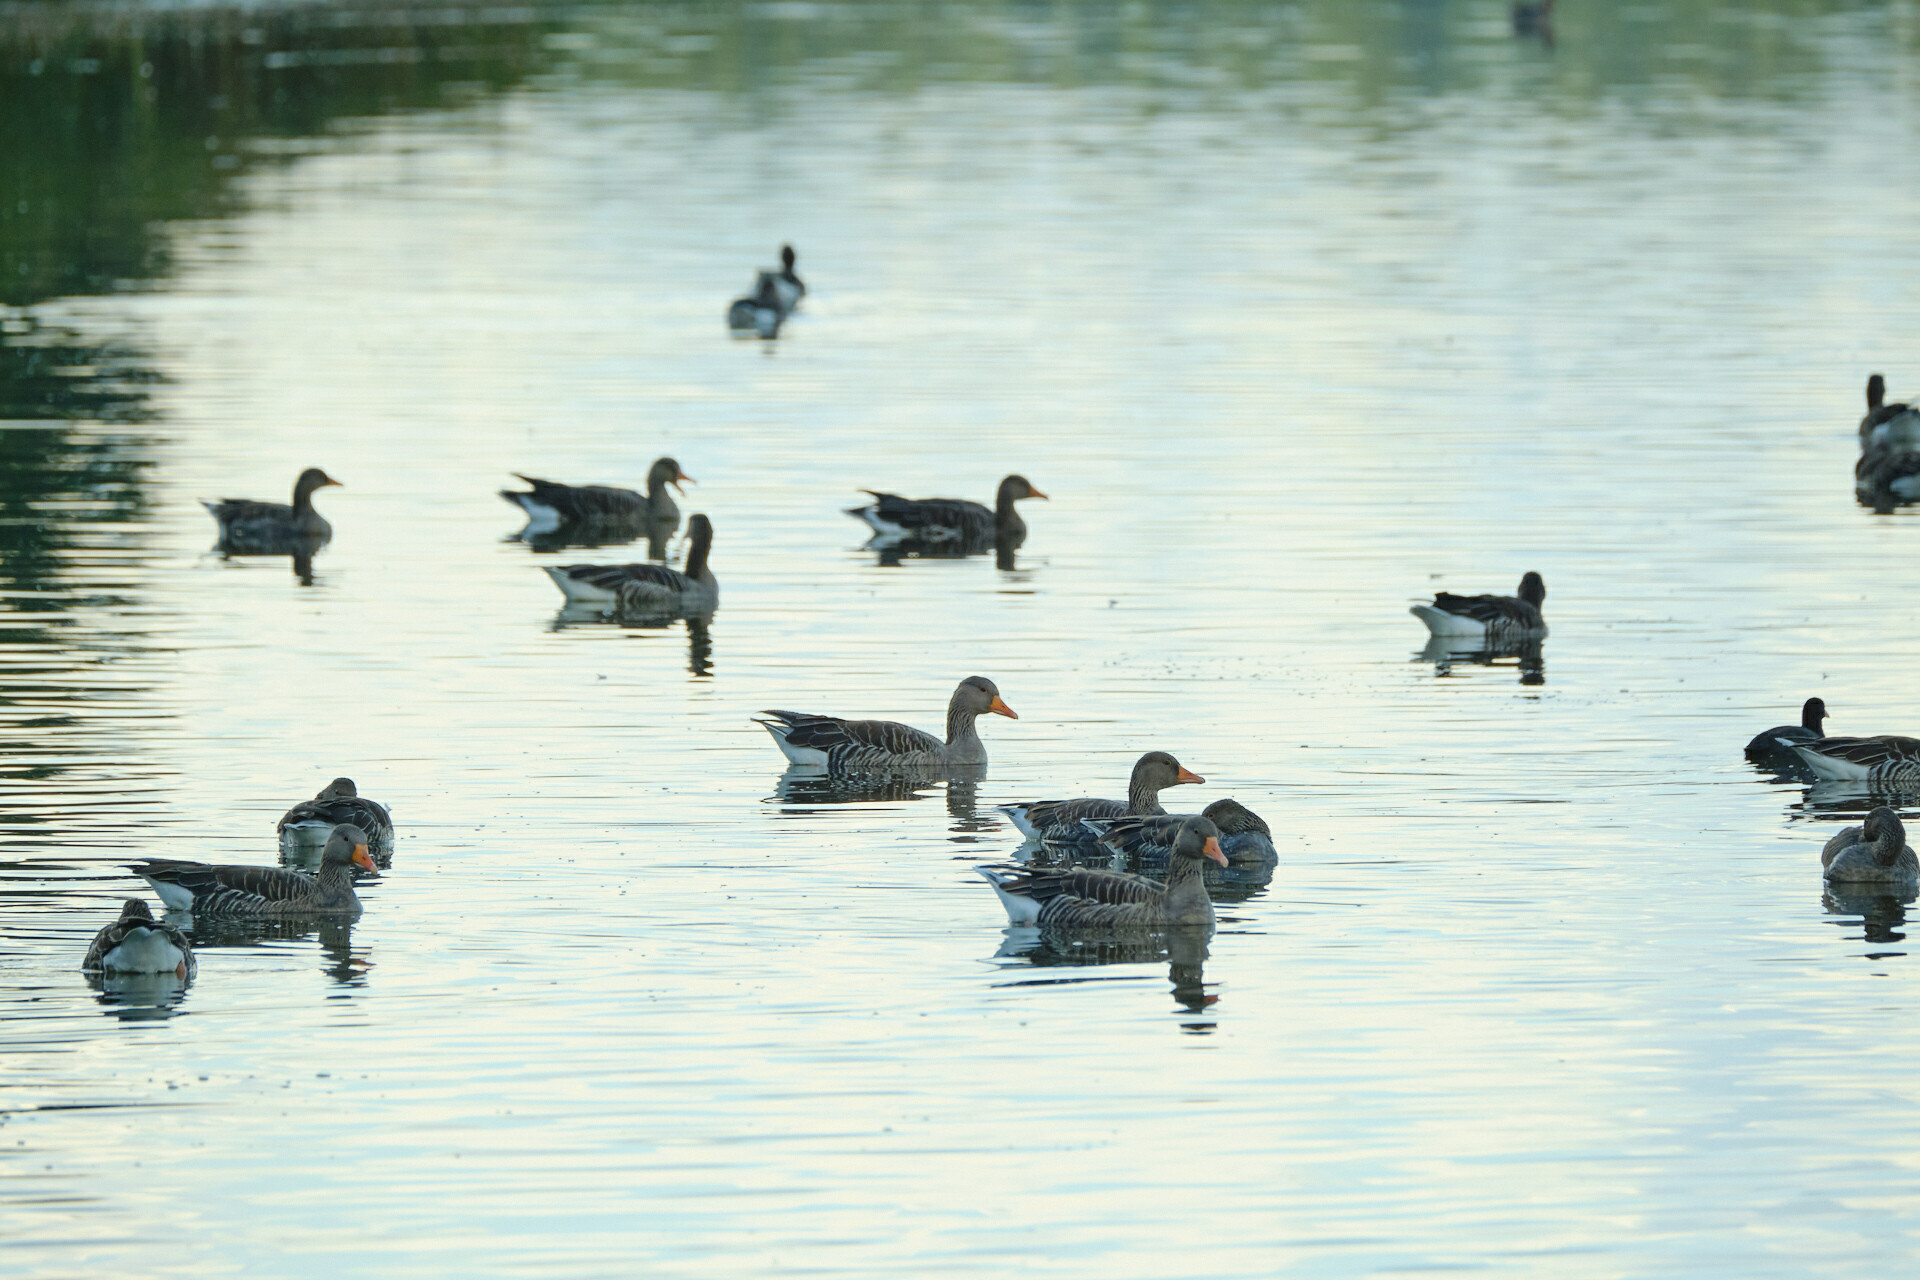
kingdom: Animalia
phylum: Chordata
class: Aves
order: Anseriformes
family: Anatidae
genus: Anser
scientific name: Anser anser
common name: Greylag goose
